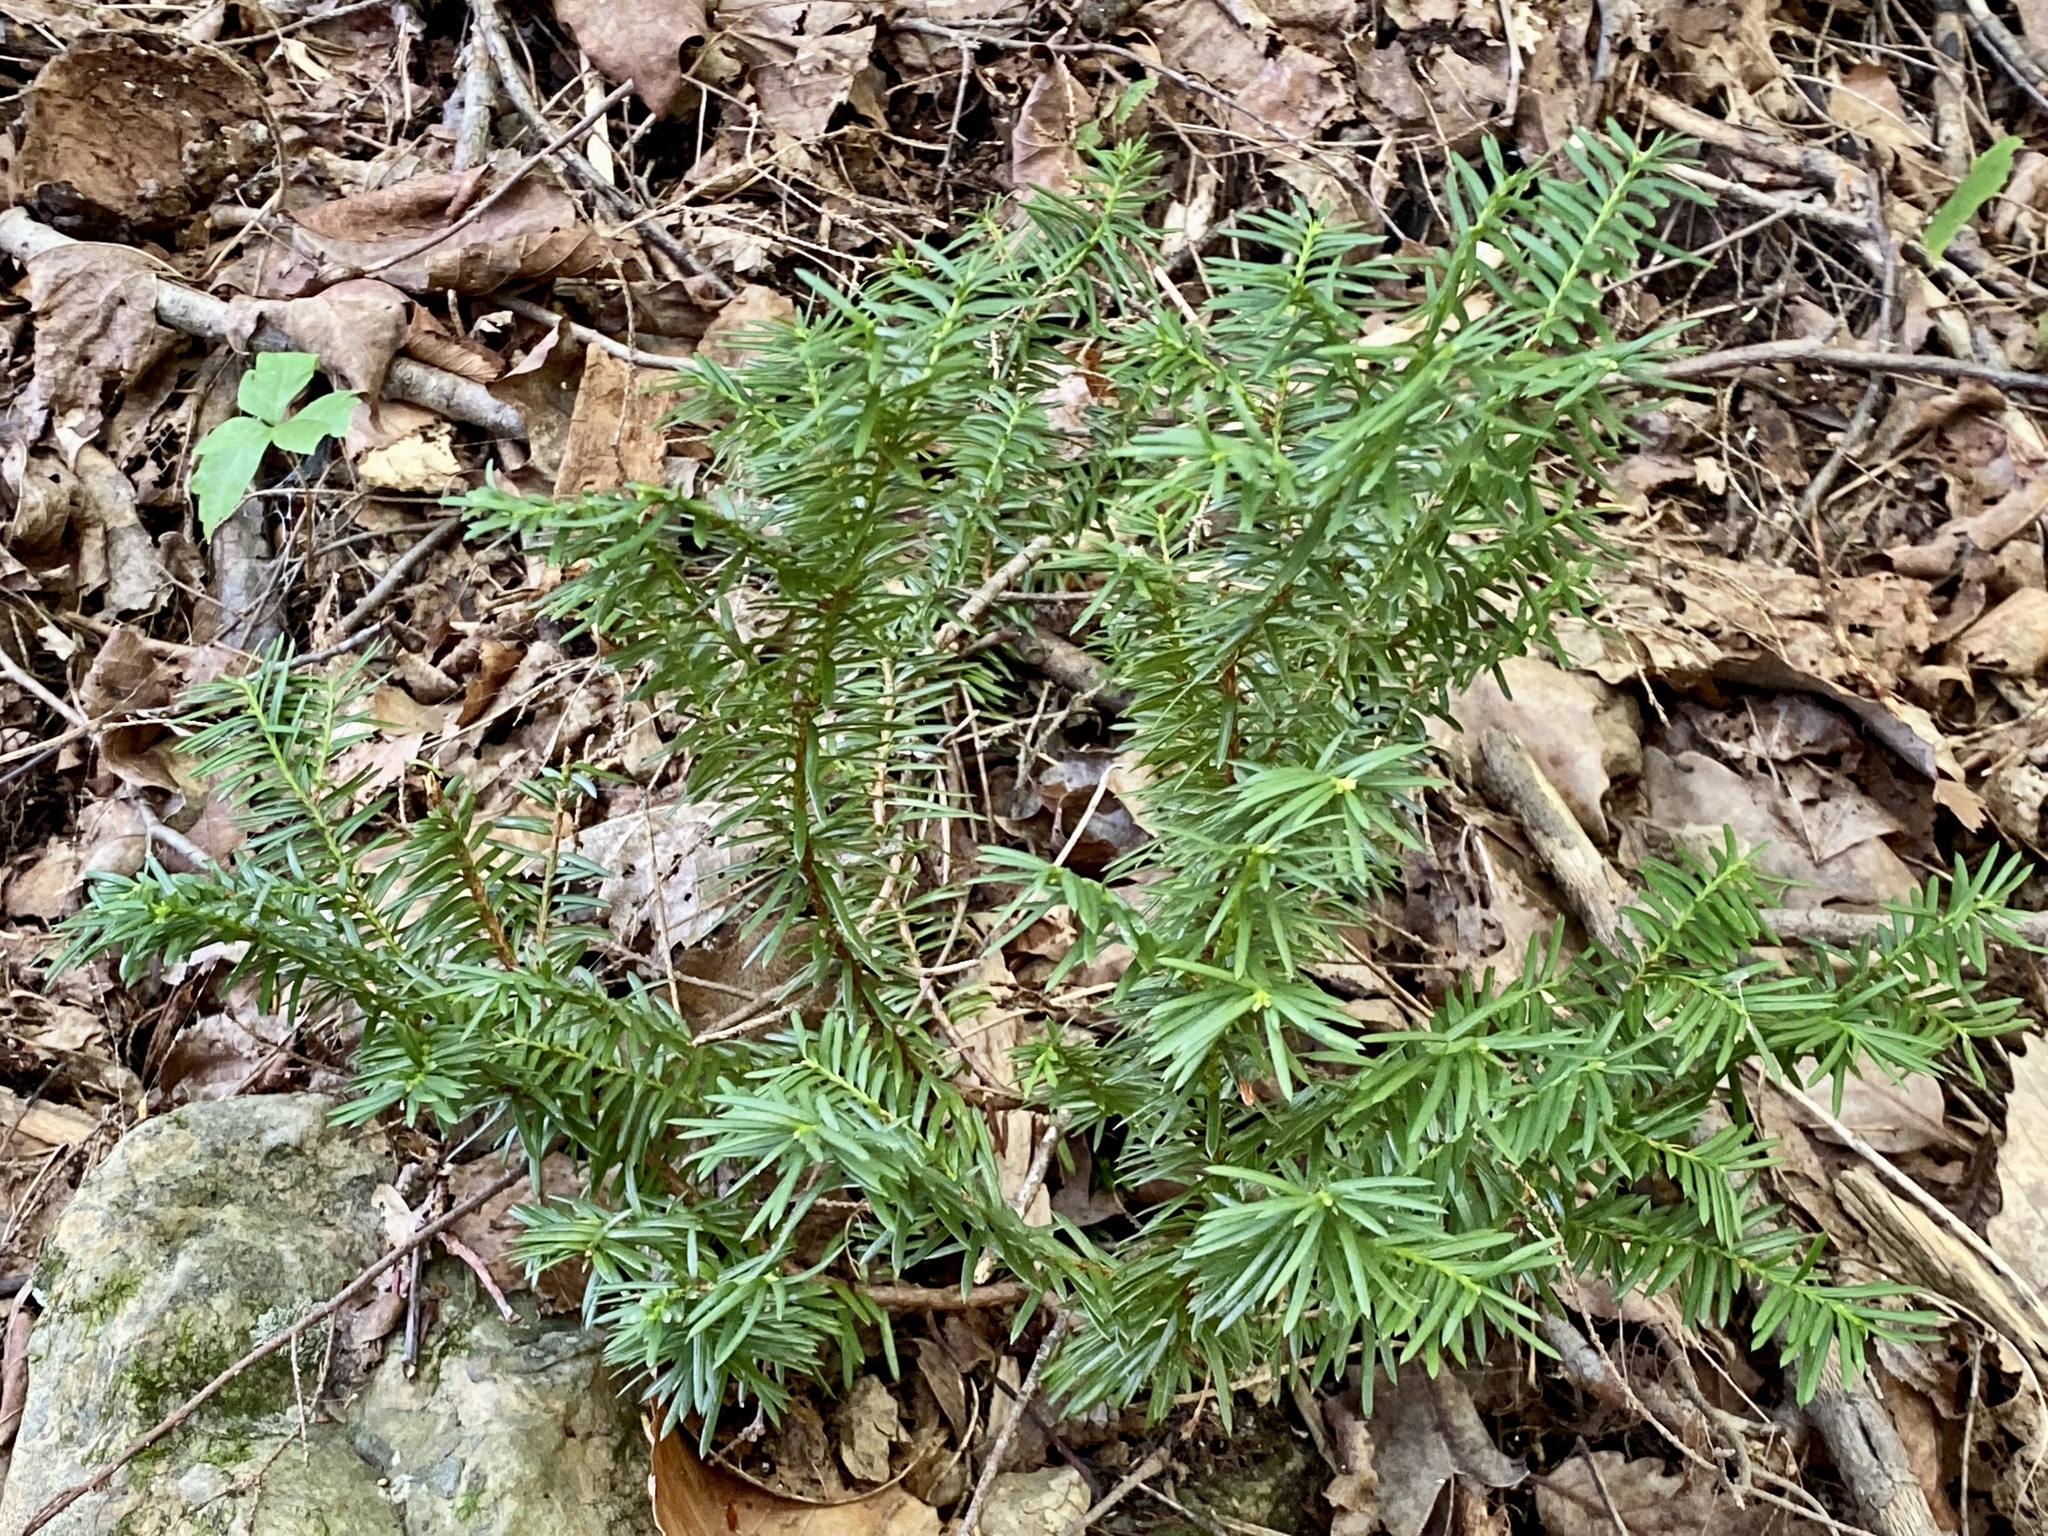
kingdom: Plantae
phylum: Tracheophyta
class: Pinopsida
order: Pinales
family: Taxaceae
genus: Taxus
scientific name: Taxus canadensis
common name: American yew
